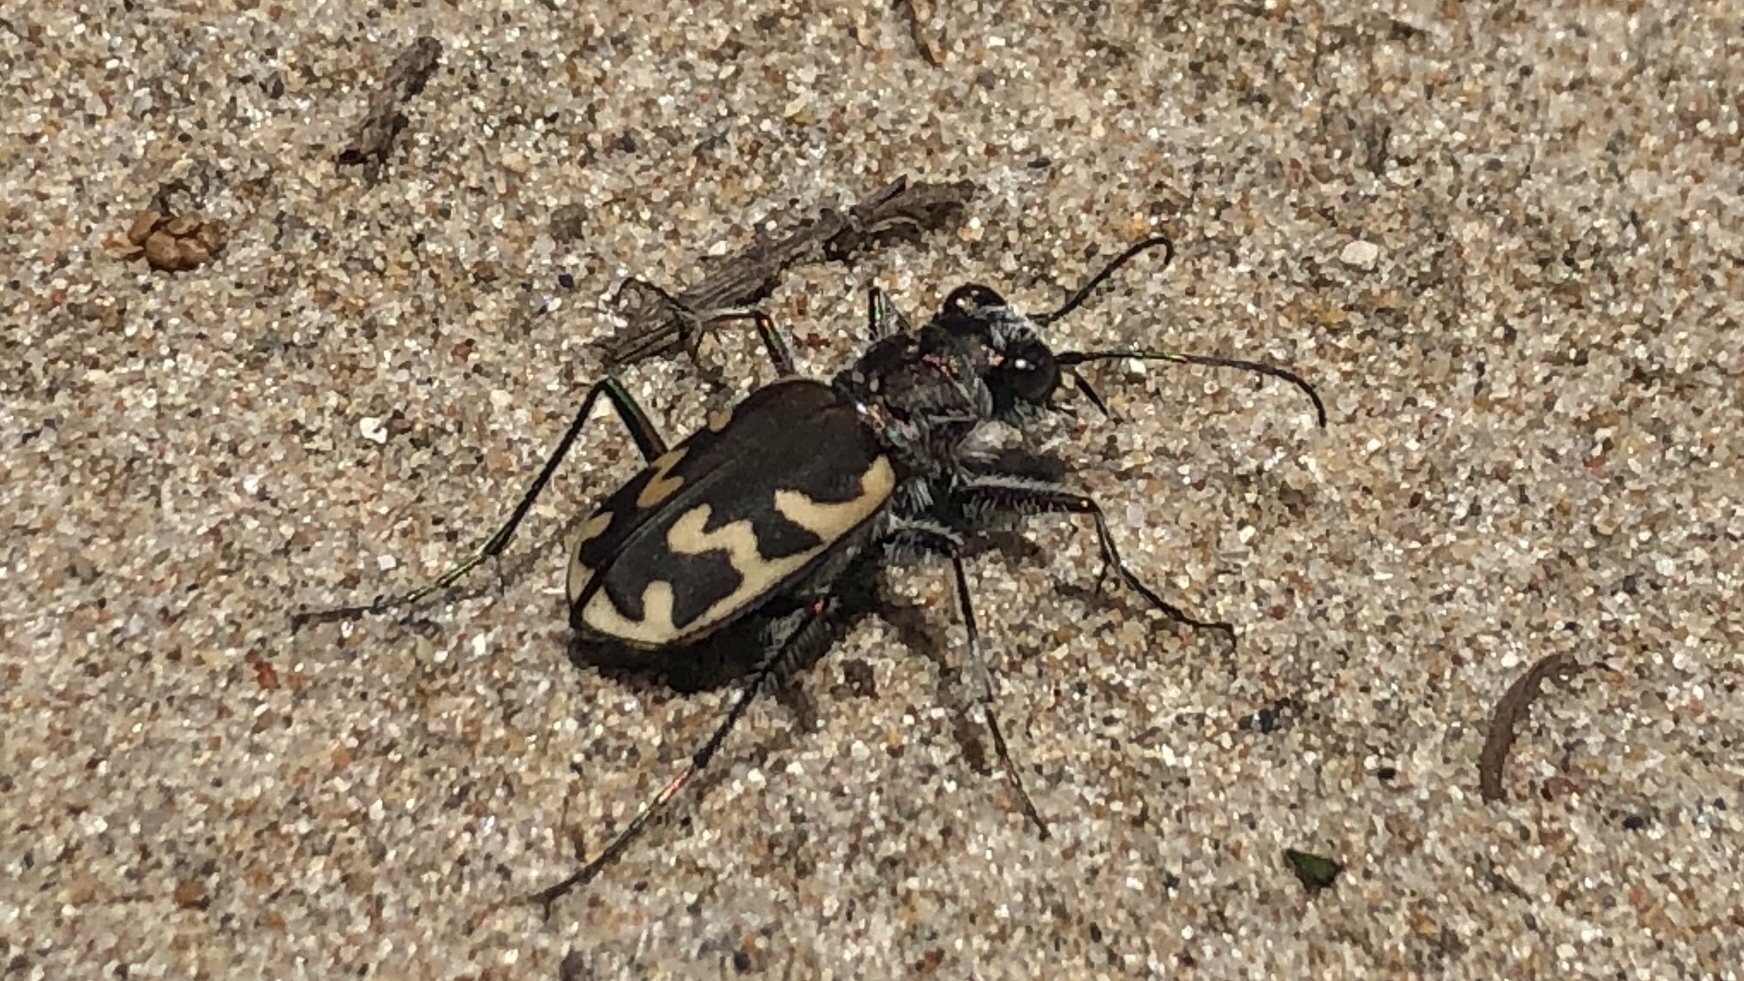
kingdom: Animalia
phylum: Arthropoda
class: Insecta
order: Coleoptera
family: Carabidae
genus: Cicindela
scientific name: Cicindela formosa
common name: Big sand tiger beetle
